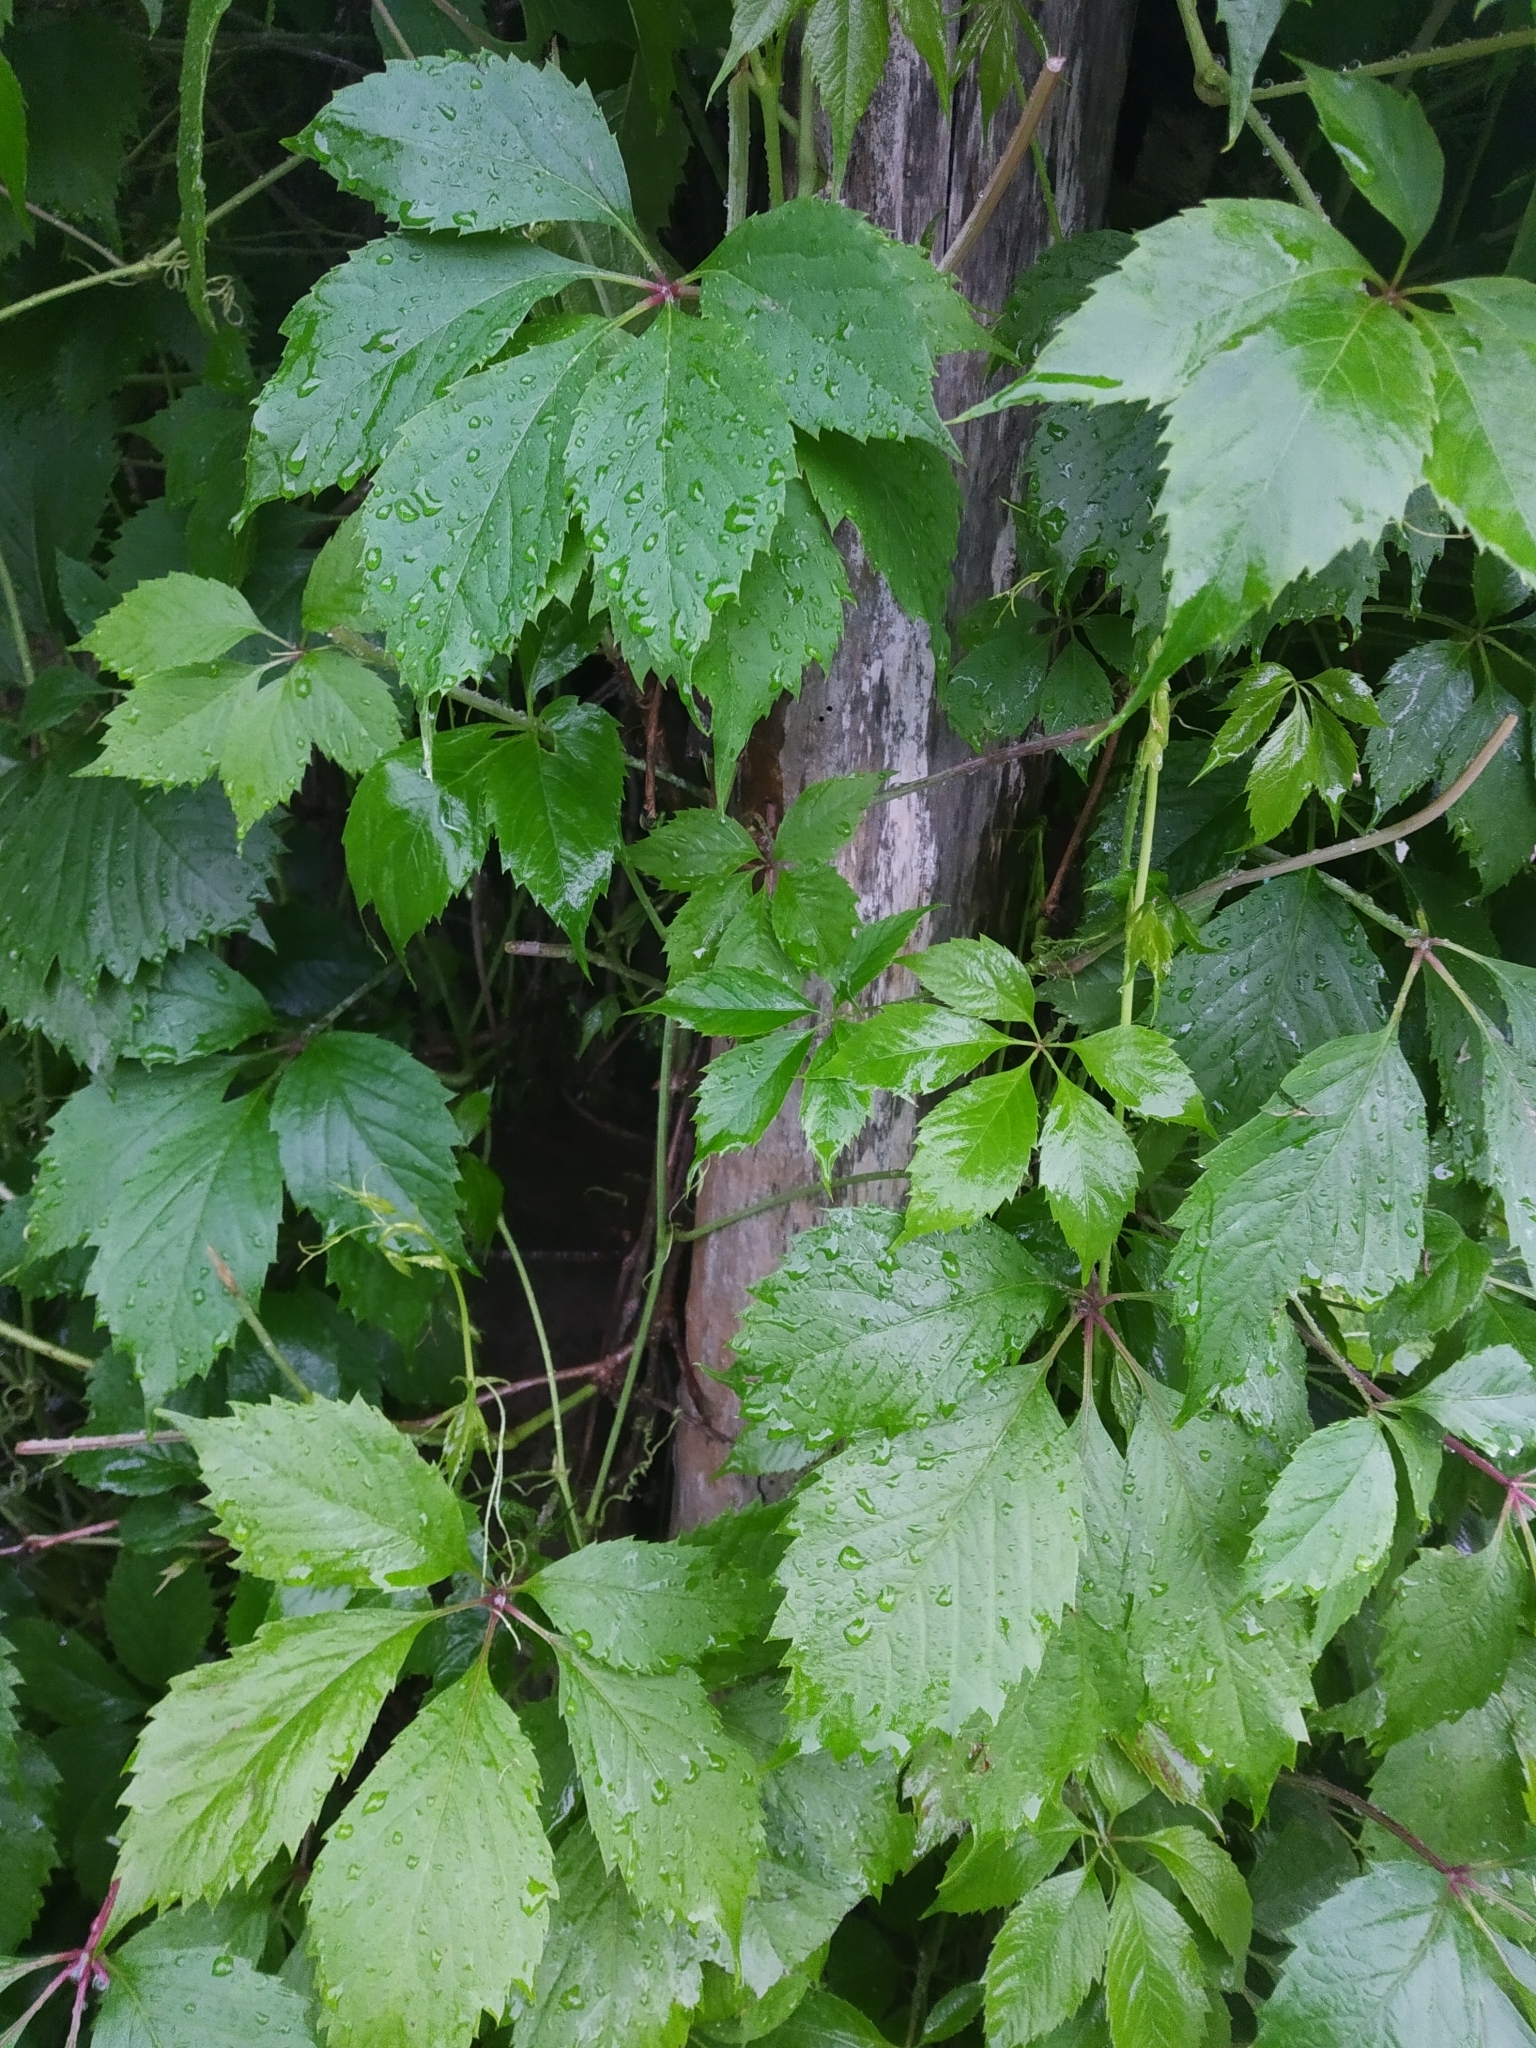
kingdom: Plantae
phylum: Tracheophyta
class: Magnoliopsida
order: Vitales
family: Vitaceae
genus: Parthenocissus
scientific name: Parthenocissus inserta
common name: False virginia-creeper
